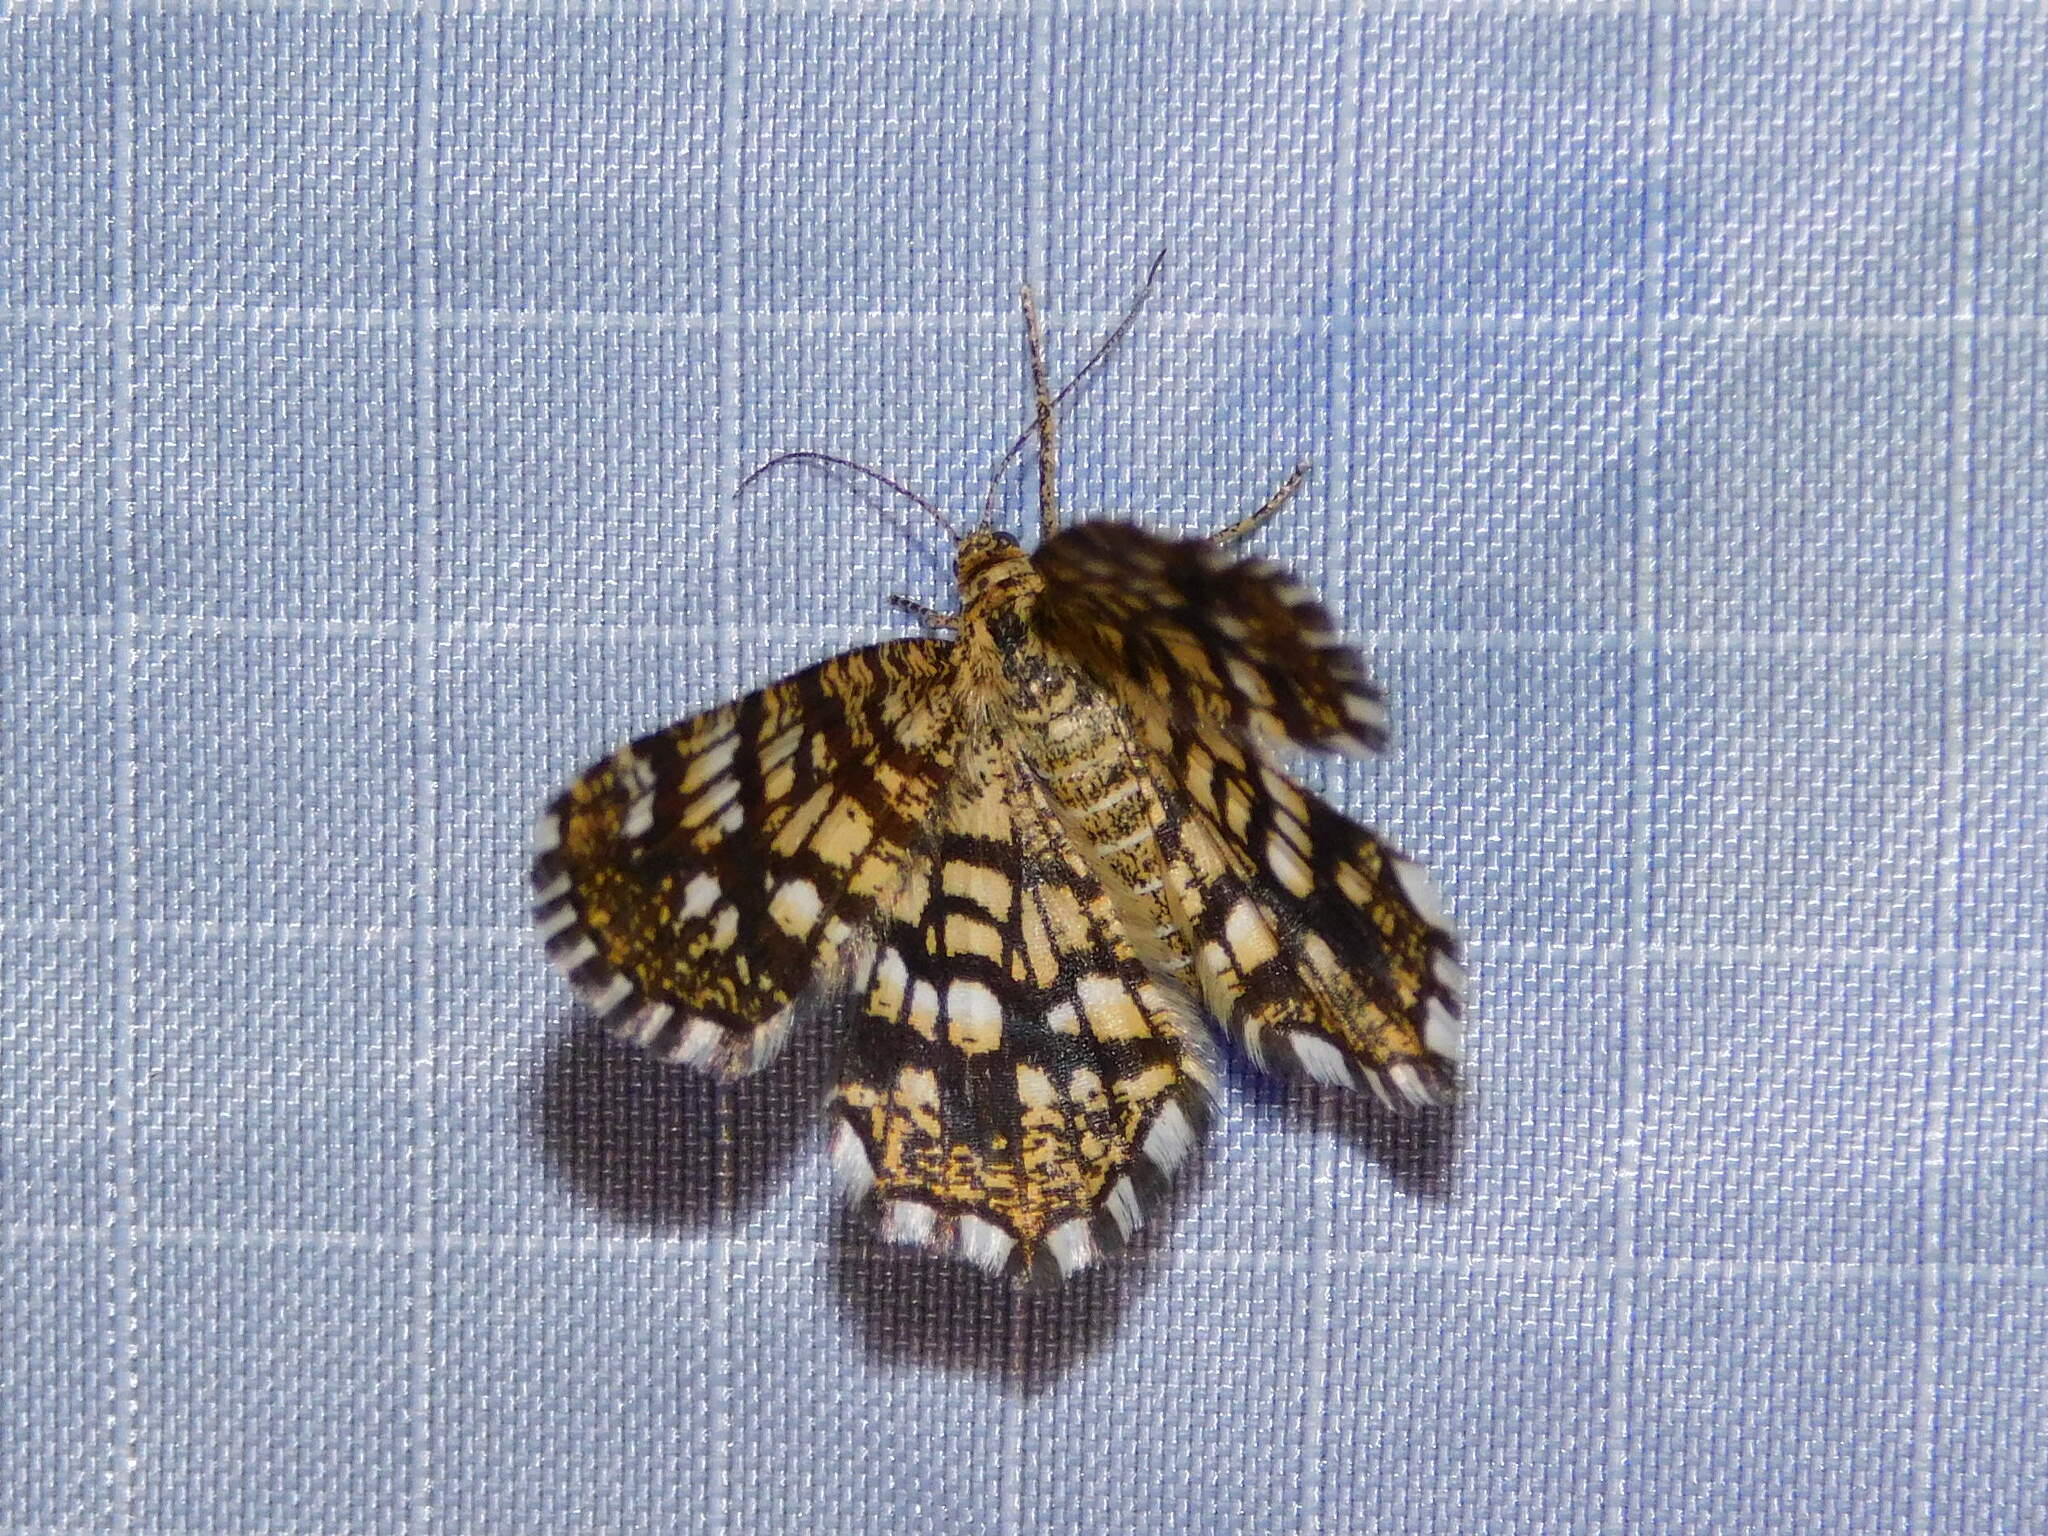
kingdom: Animalia
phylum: Arthropoda
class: Insecta
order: Lepidoptera
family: Geometridae
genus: Chiasmia
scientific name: Chiasmia clathrata
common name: Latticed heath
